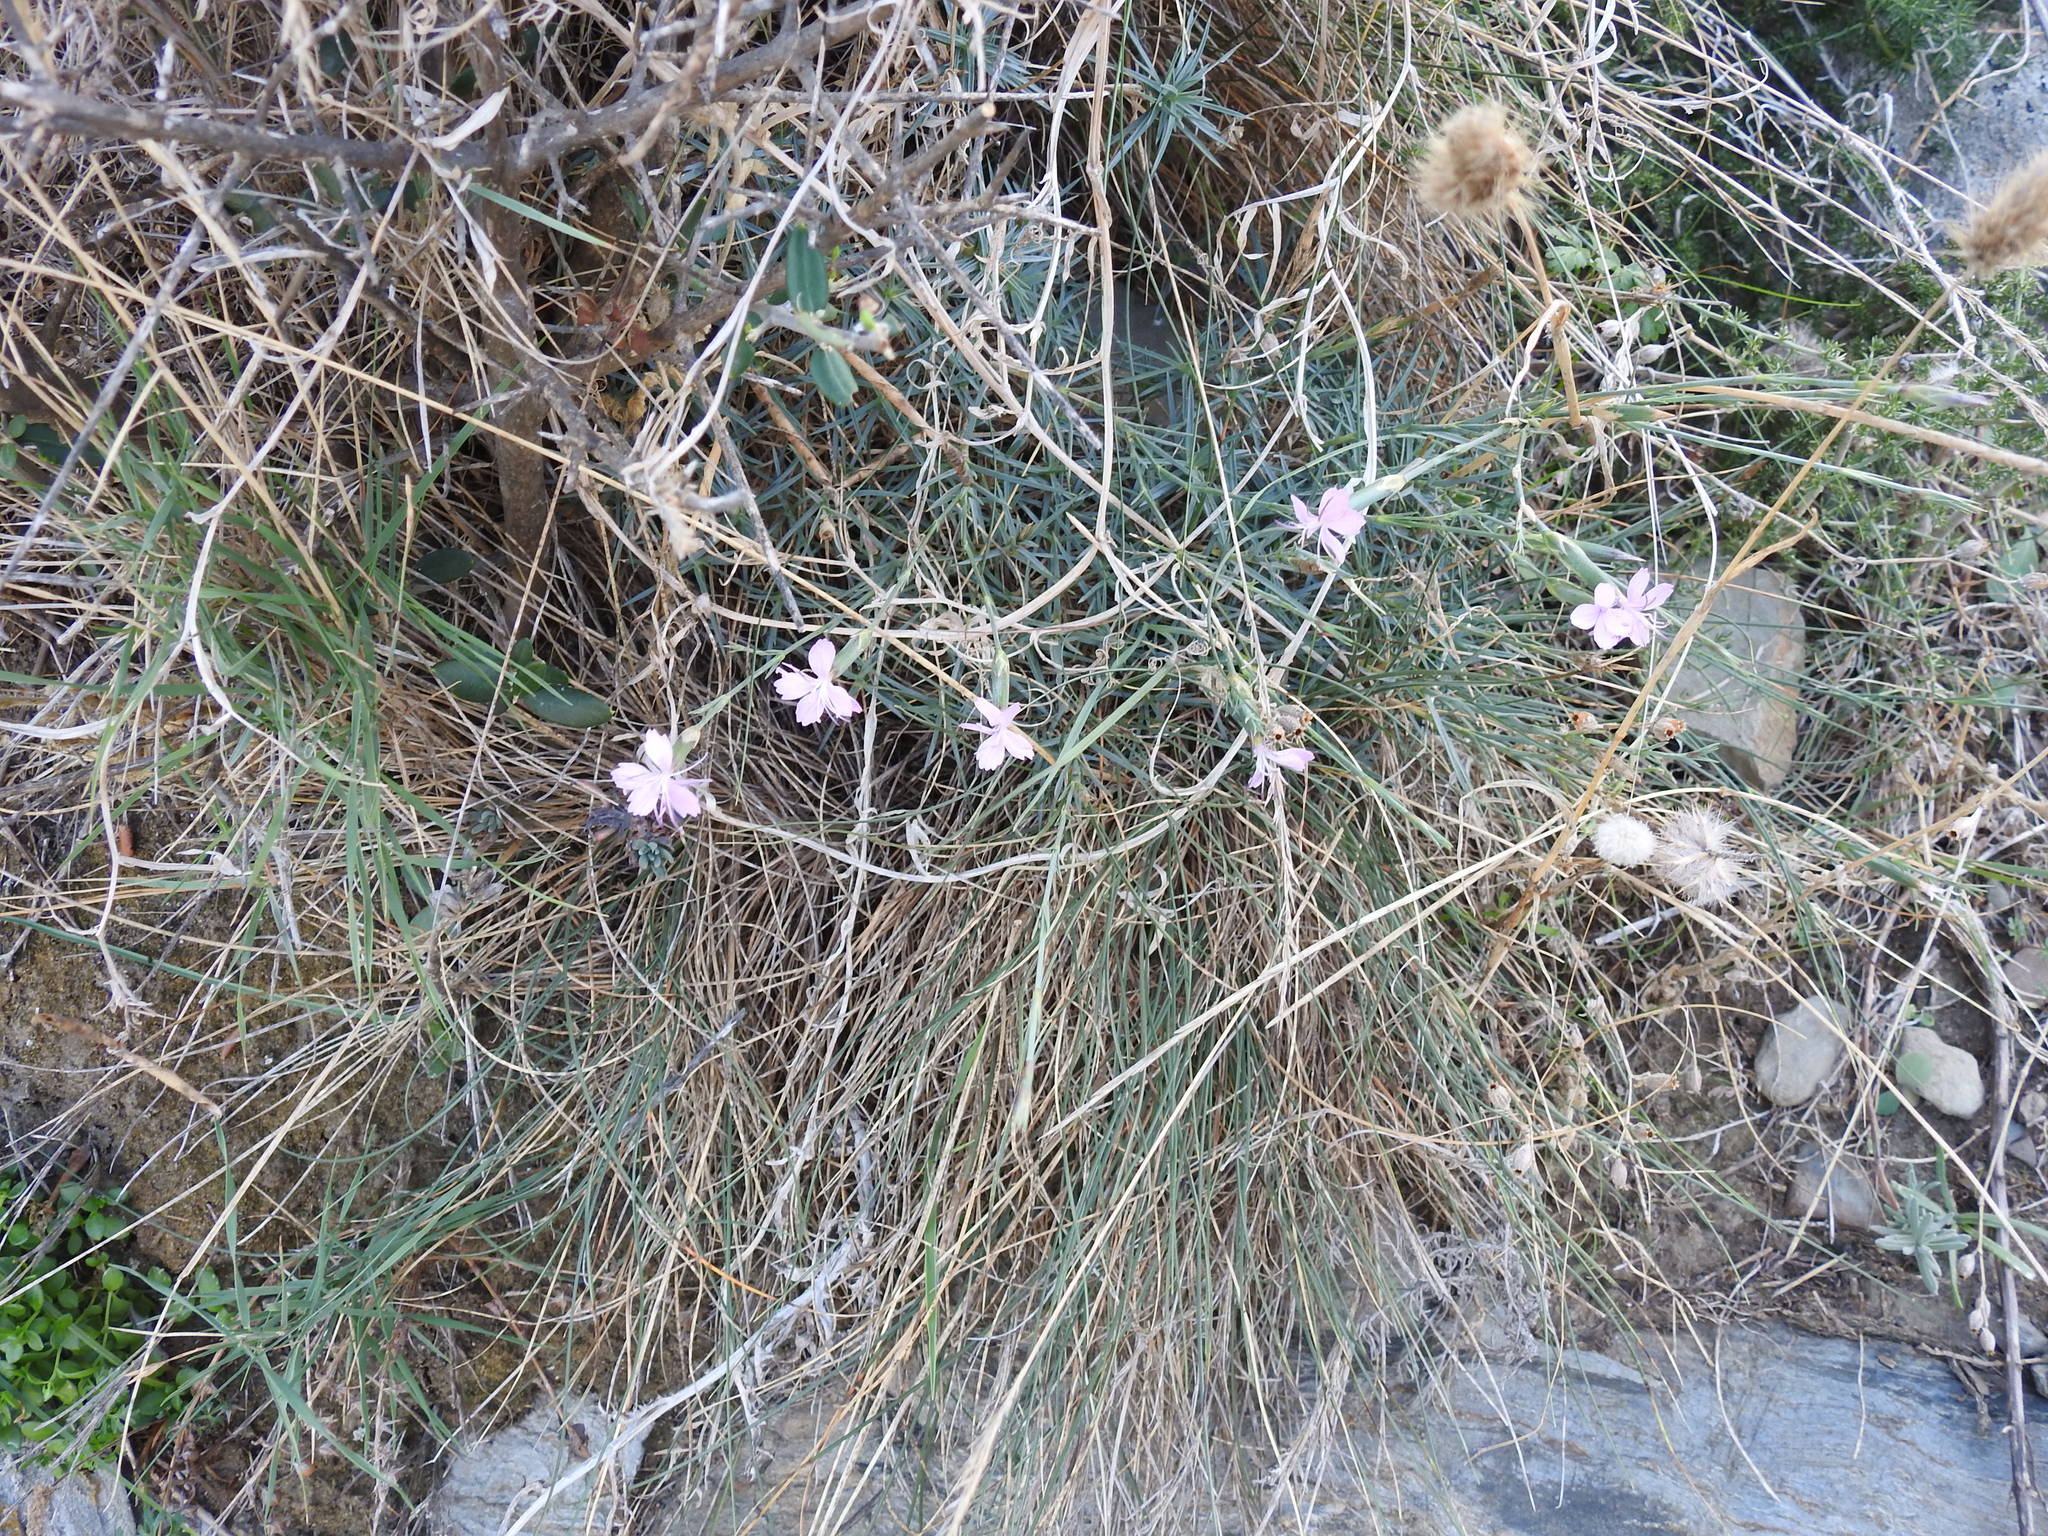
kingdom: Plantae
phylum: Tracheophyta
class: Magnoliopsida
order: Caryophyllales
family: Caryophyllaceae
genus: Dianthus
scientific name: Dianthus pyrenaicus
